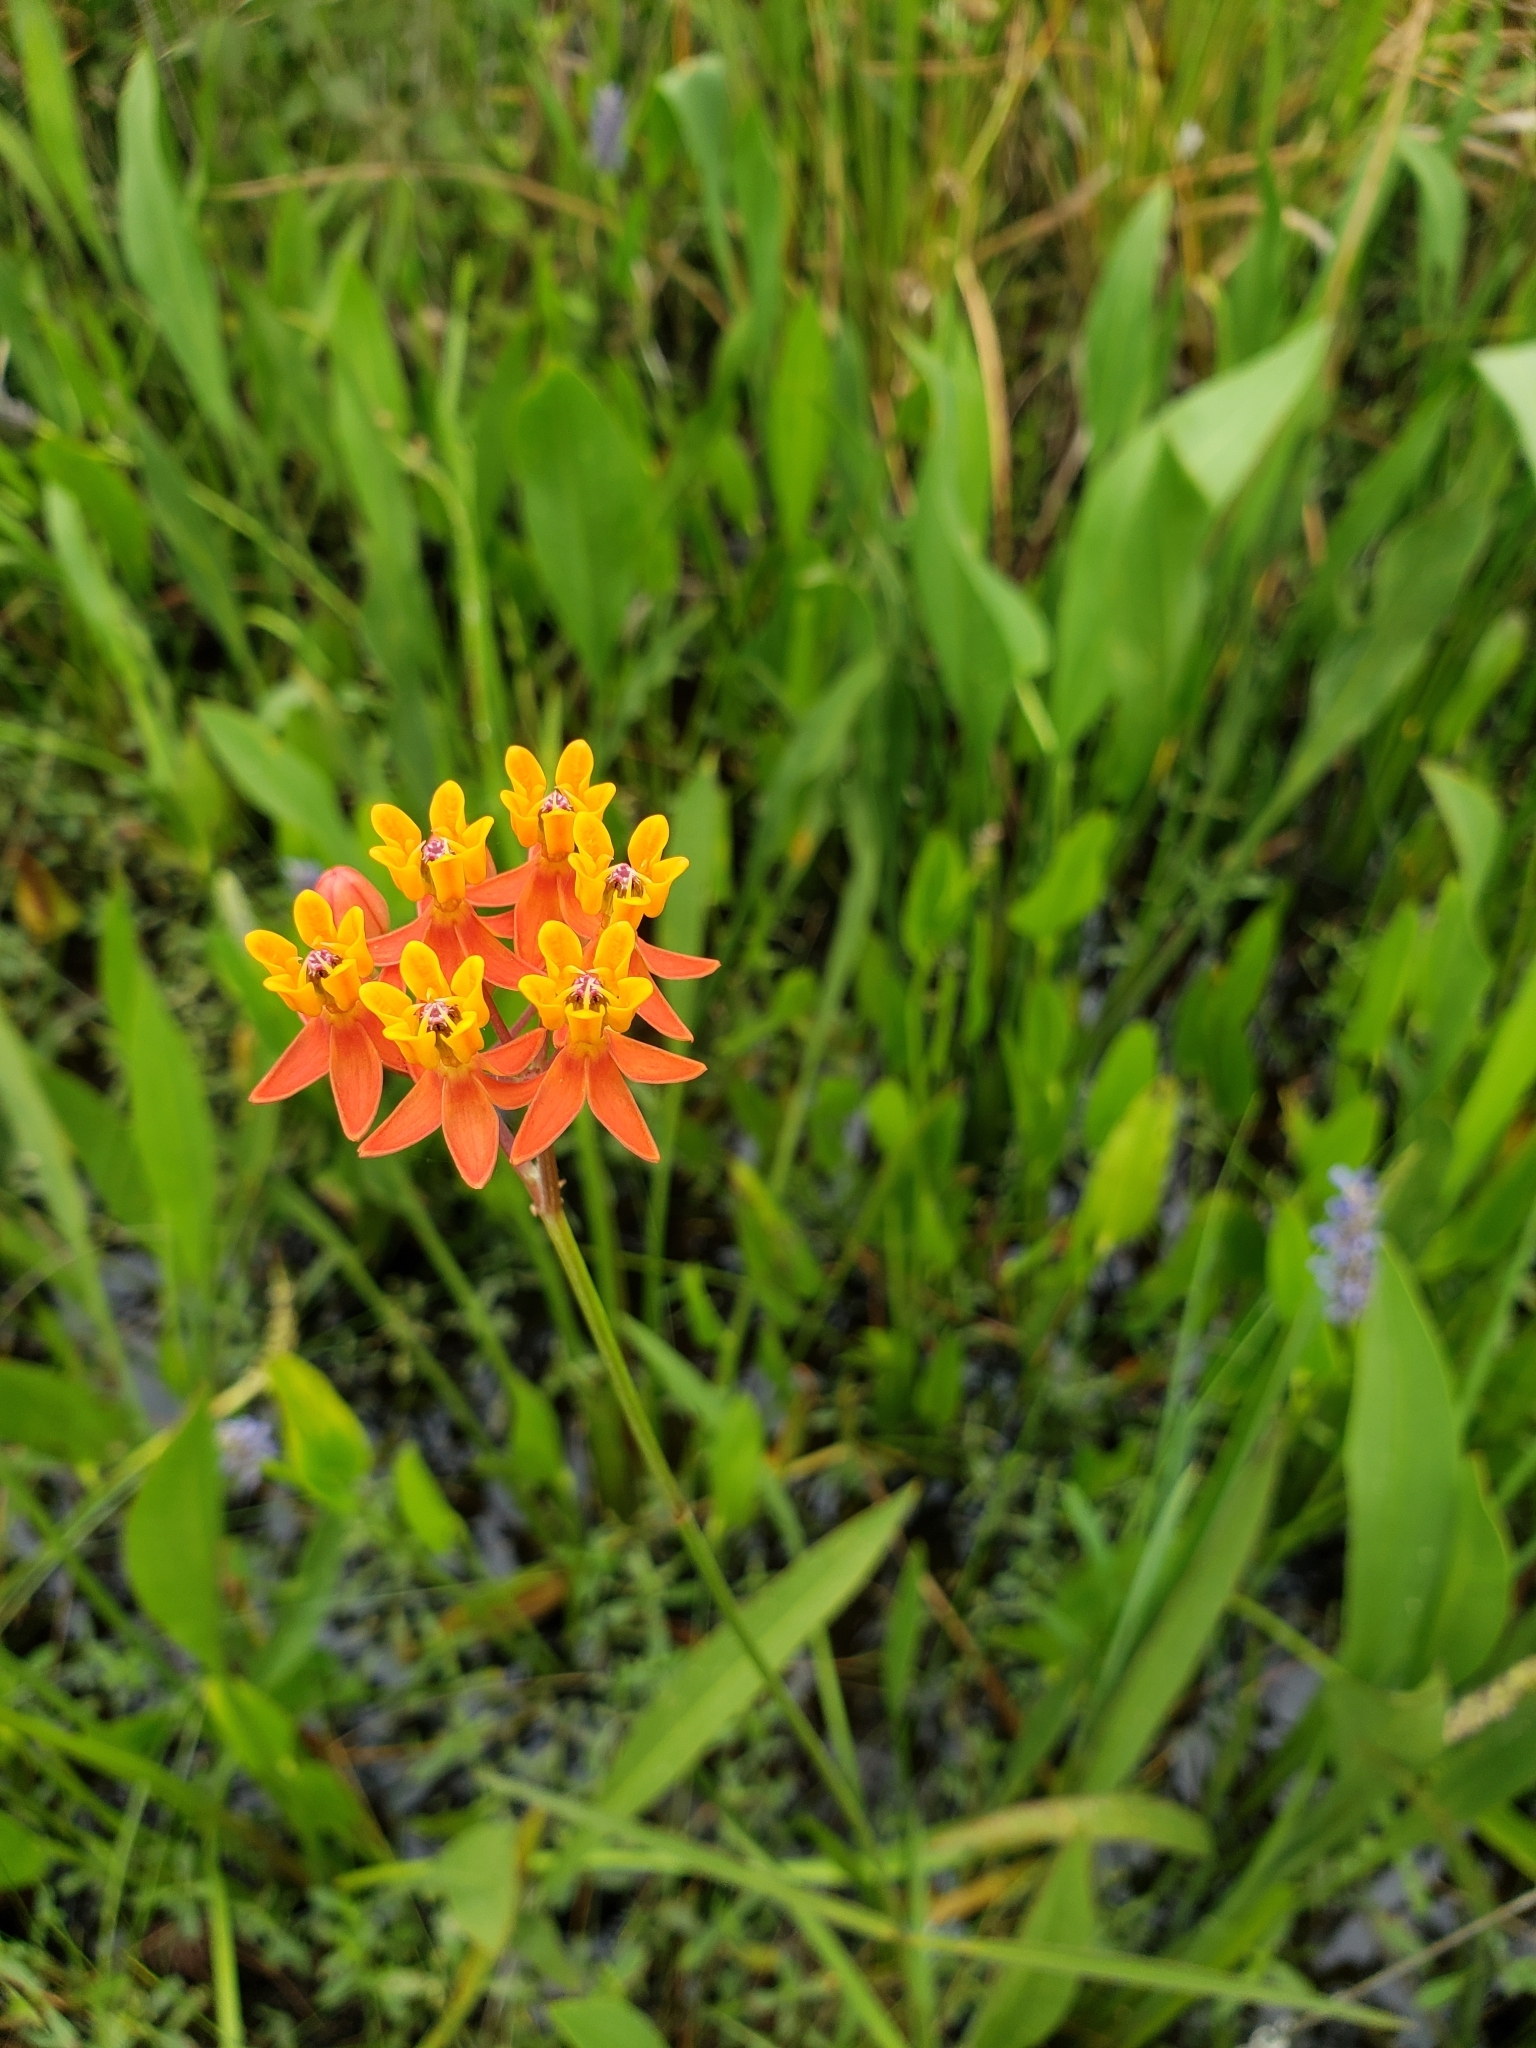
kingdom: Plantae
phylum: Tracheophyta
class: Magnoliopsida
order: Gentianales
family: Apocynaceae
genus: Asclepias
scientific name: Asclepias lanceolata
